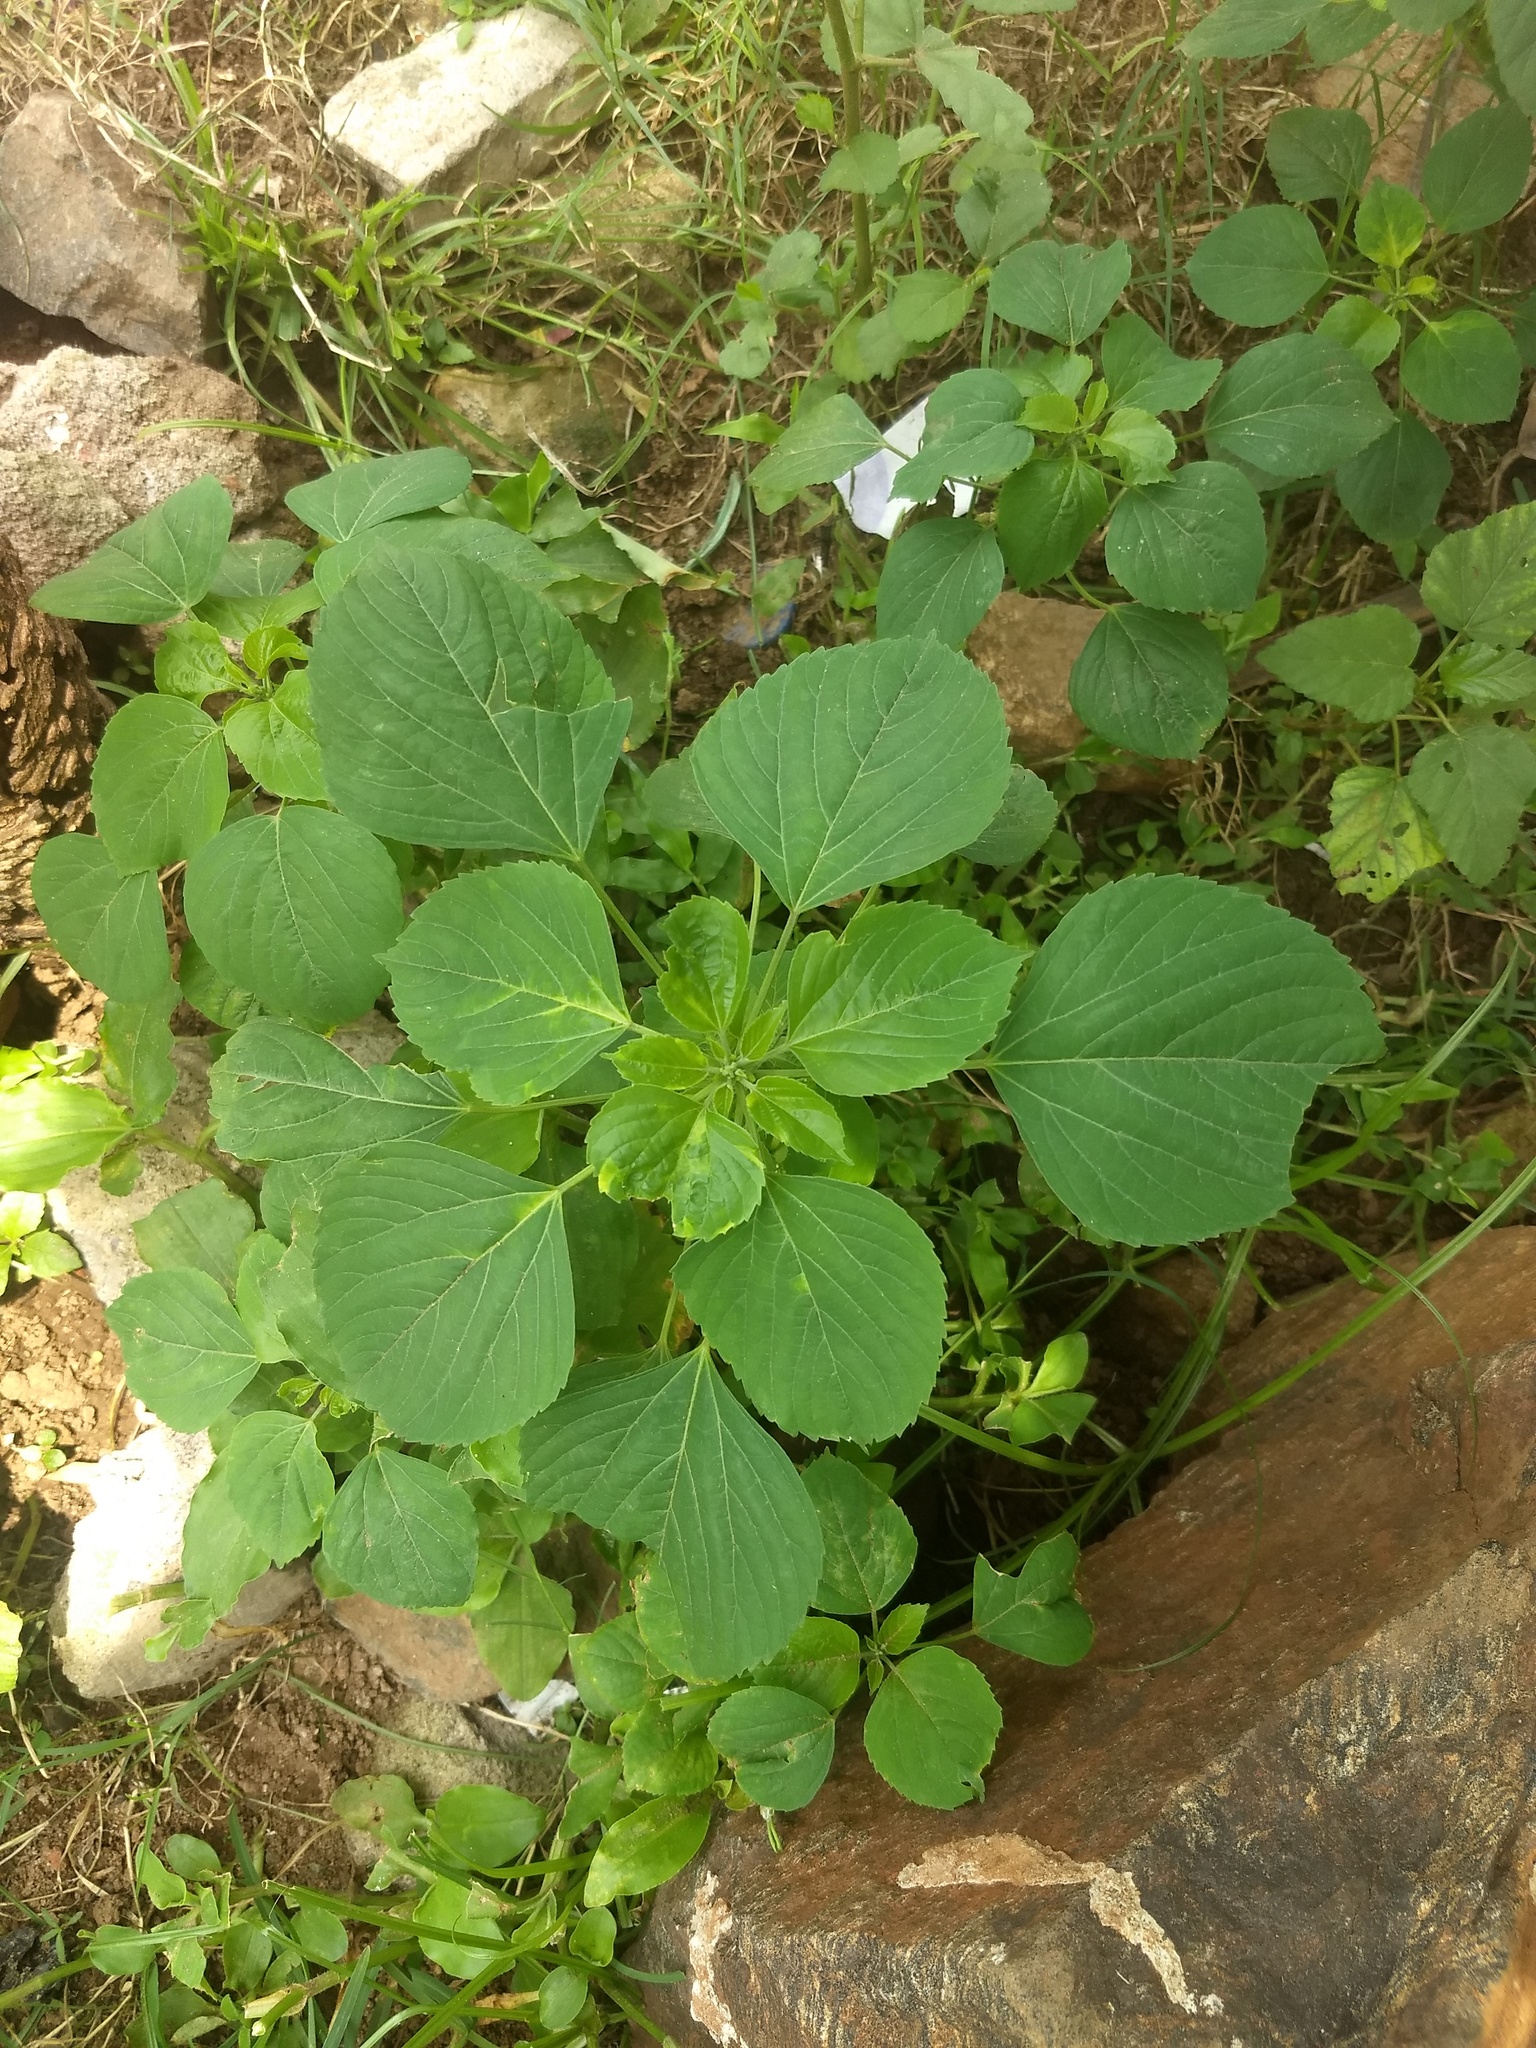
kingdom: Plantae
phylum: Tracheophyta
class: Magnoliopsida
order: Malpighiales
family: Euphorbiaceae
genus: Acalypha
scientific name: Acalypha indica
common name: Indian acalypha
